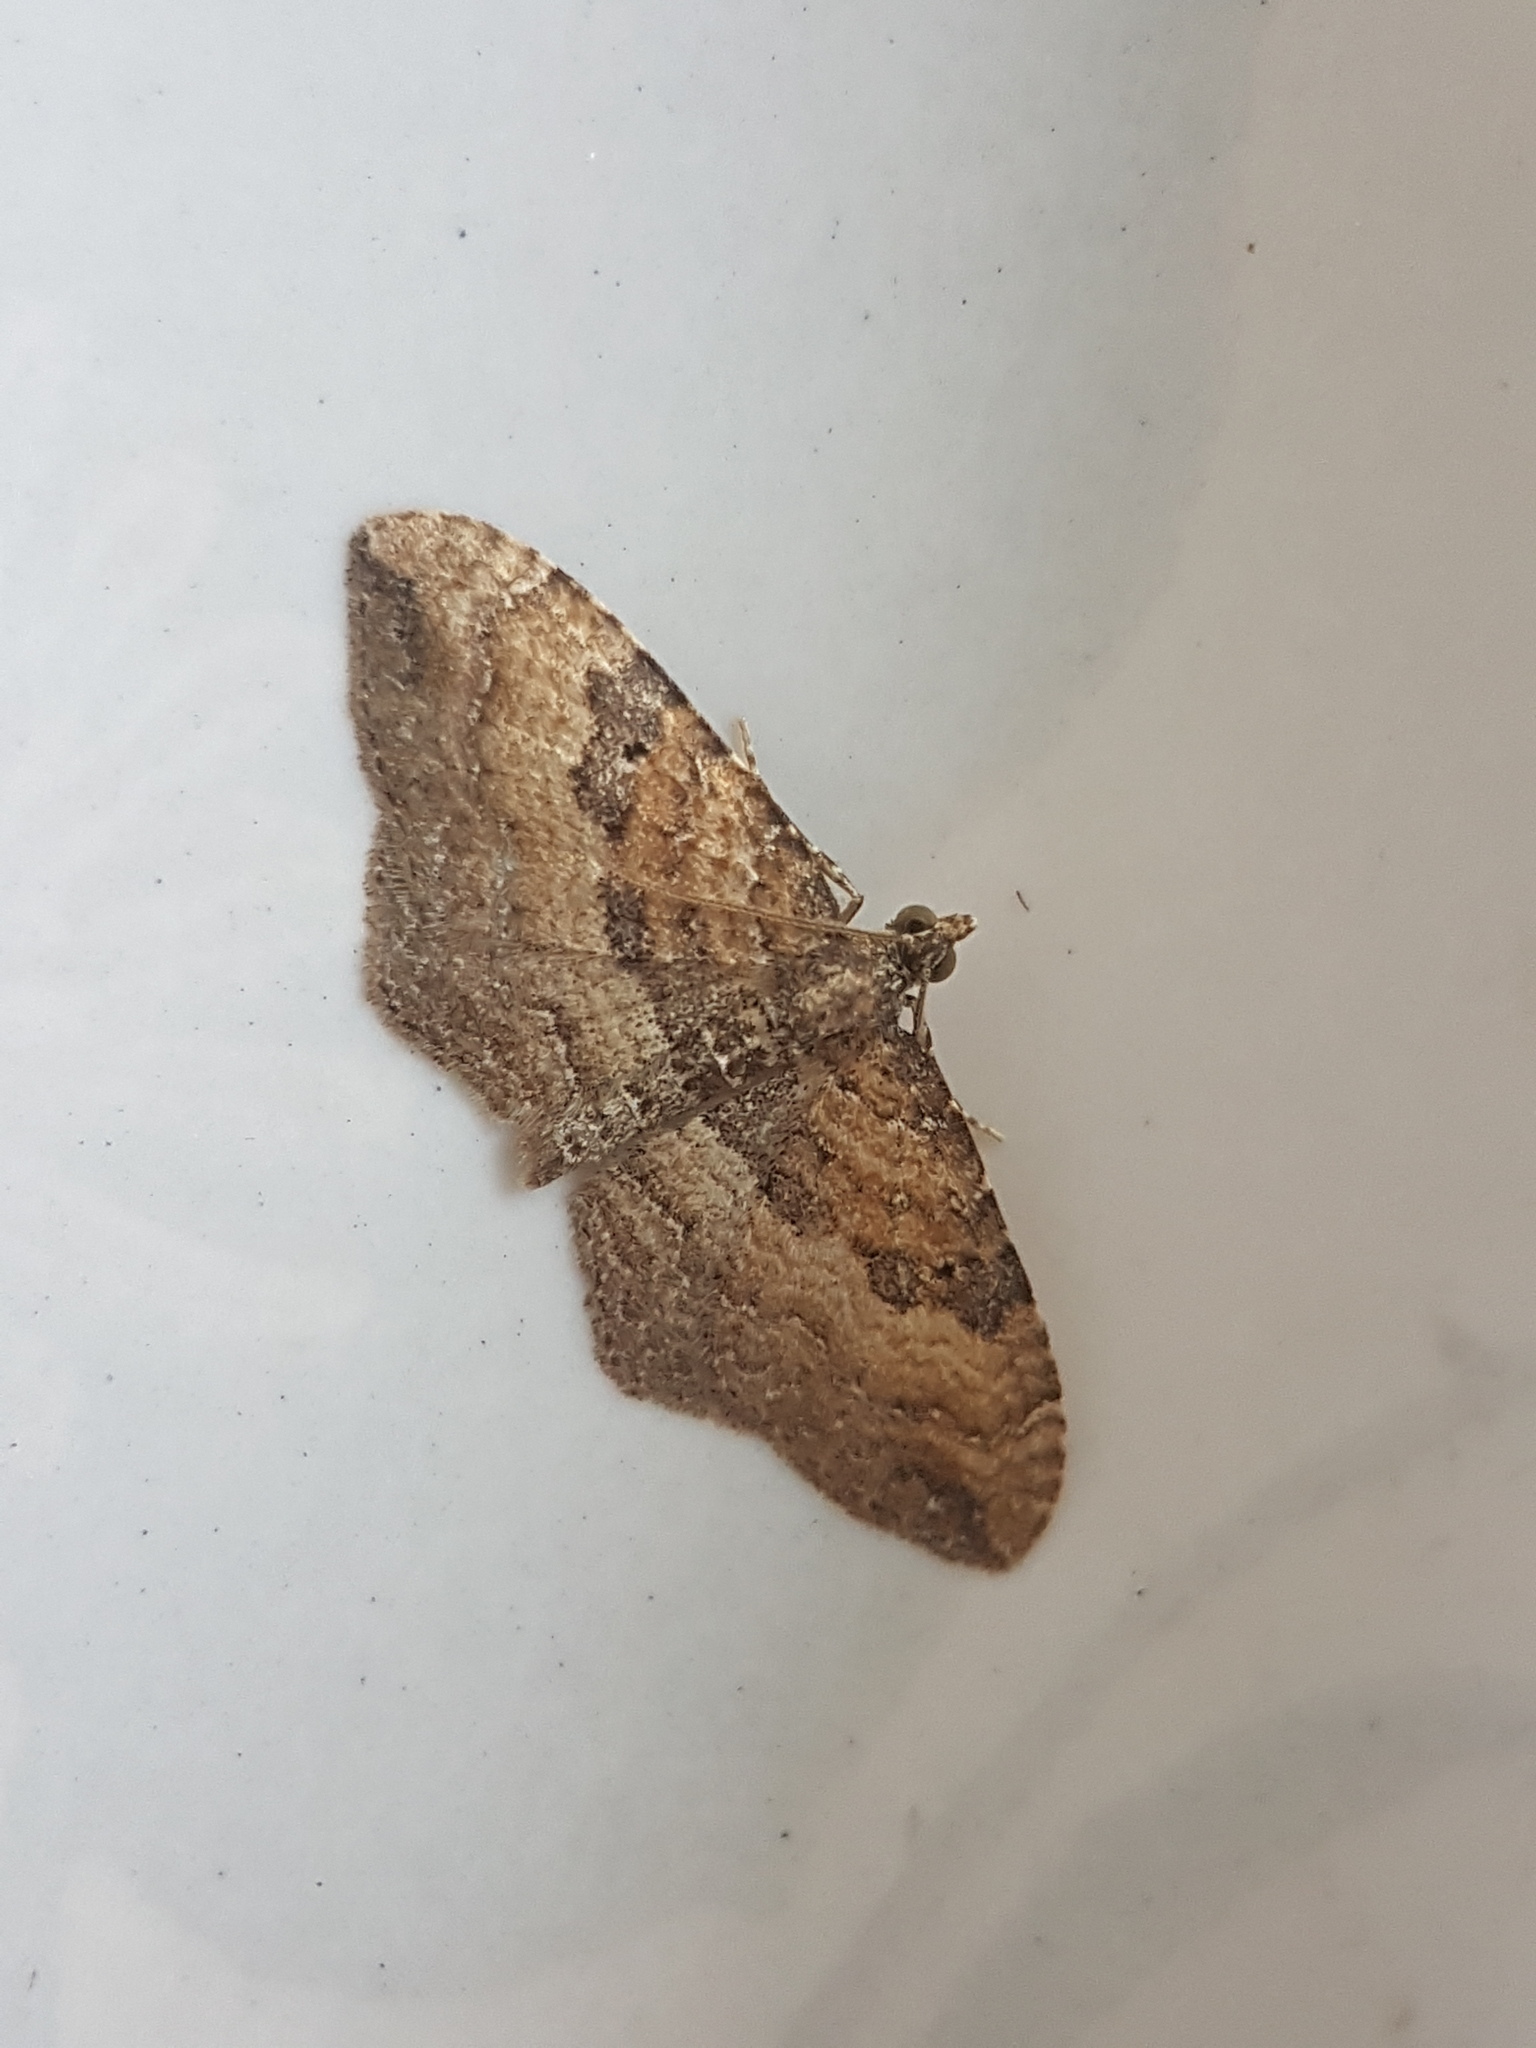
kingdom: Animalia
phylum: Arthropoda
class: Insecta
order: Lepidoptera
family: Geometridae
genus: Orthonama
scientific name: Orthonama obstipata
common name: The gem
